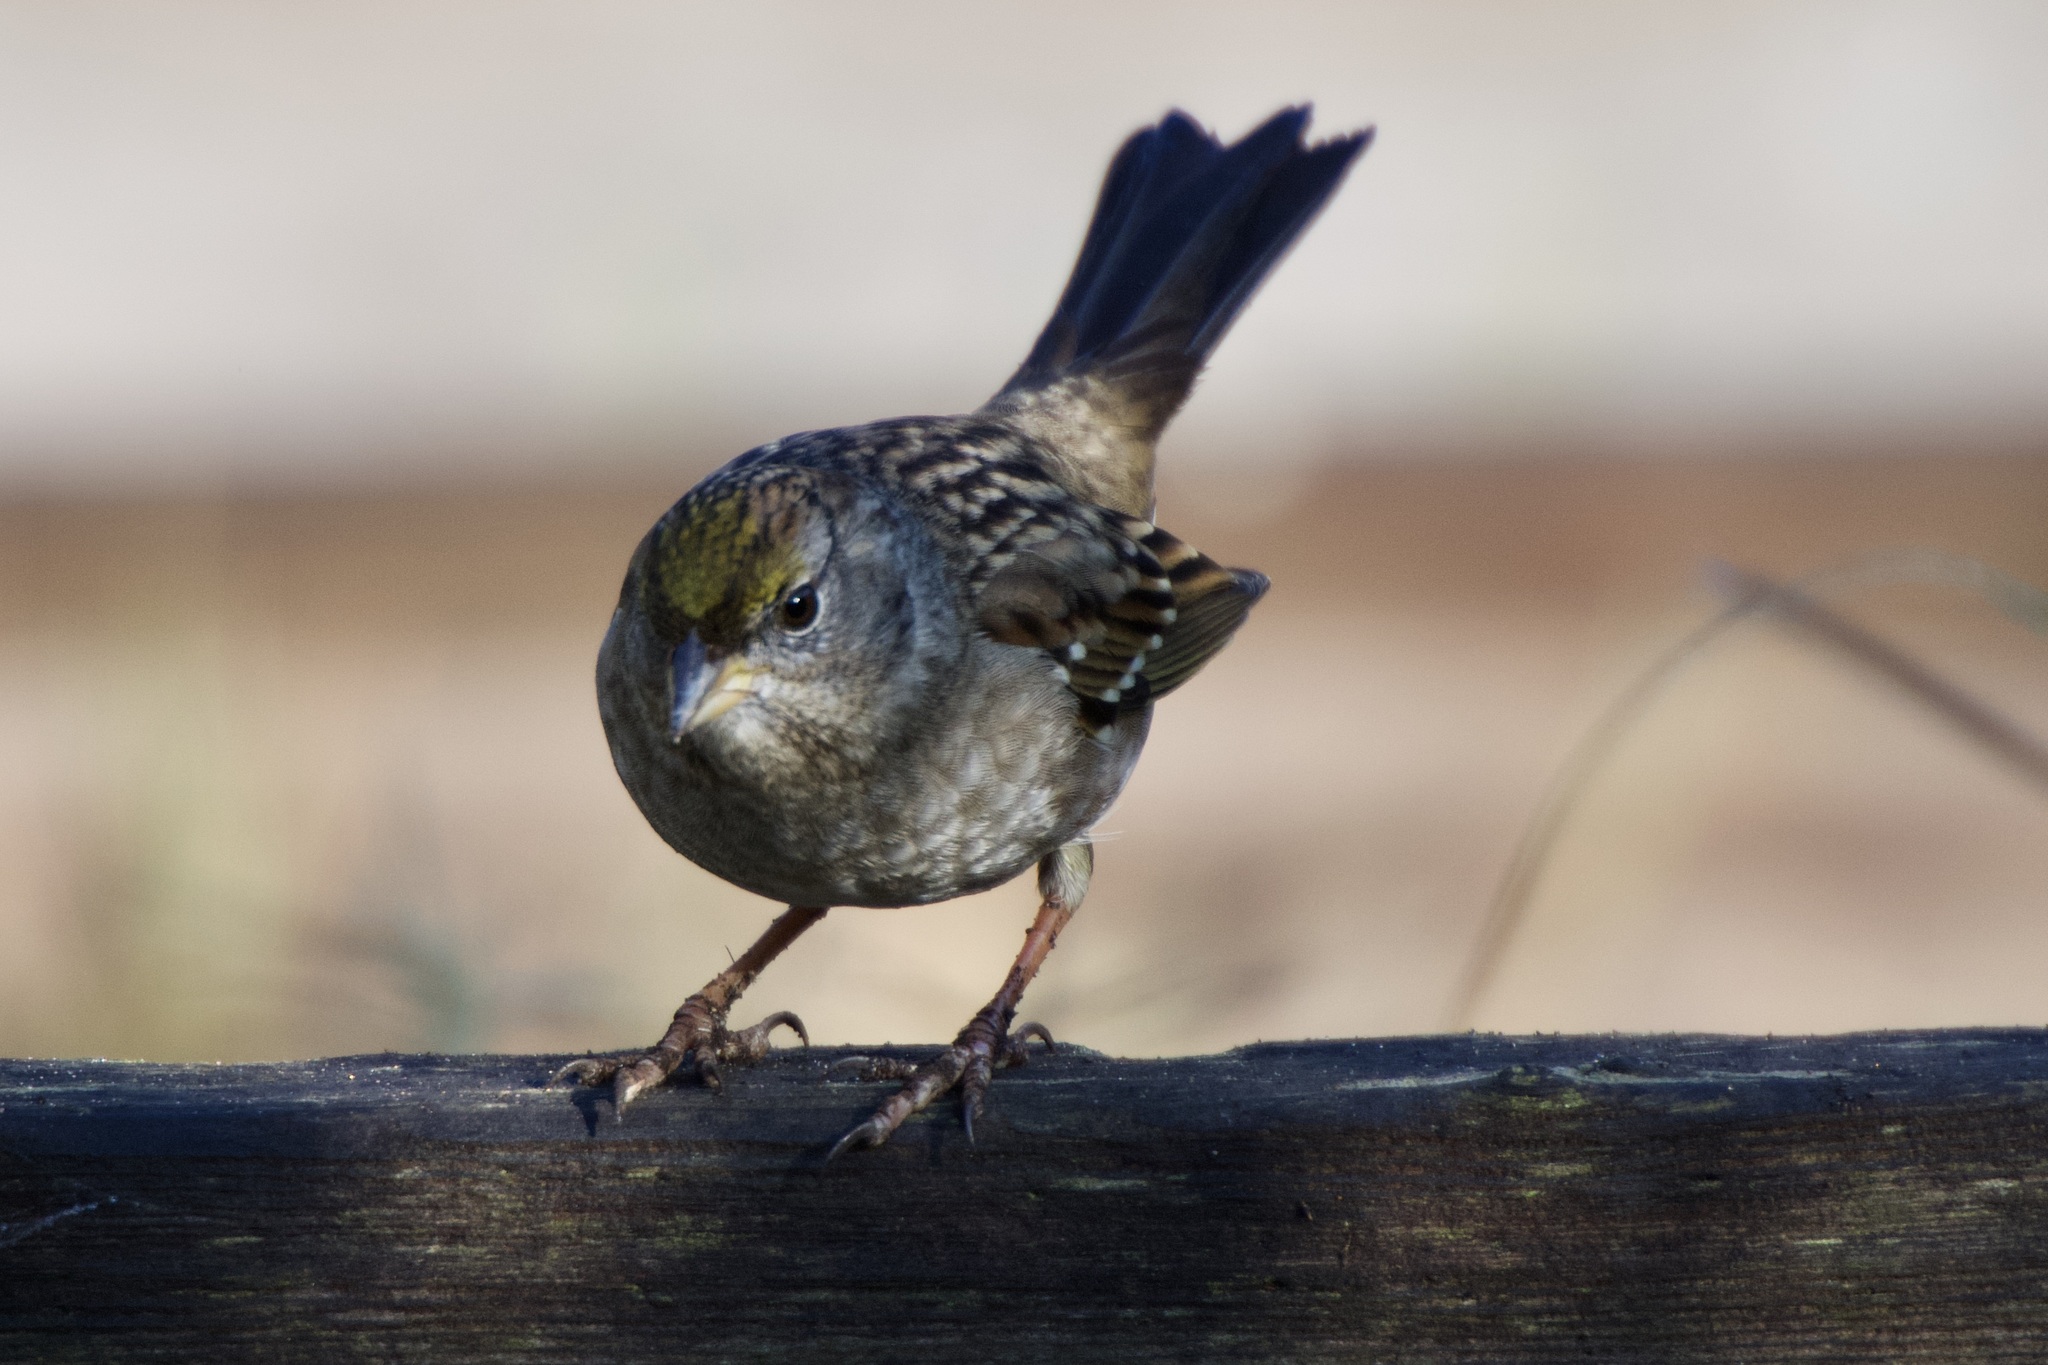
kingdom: Animalia
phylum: Chordata
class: Aves
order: Passeriformes
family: Passerellidae
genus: Zonotrichia
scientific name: Zonotrichia atricapilla
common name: Golden-crowned sparrow
